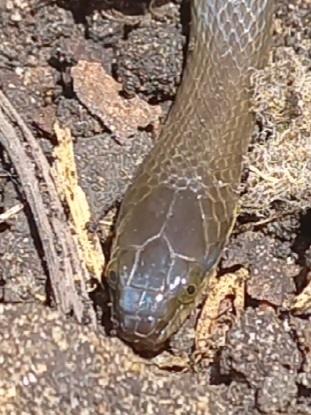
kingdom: Animalia
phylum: Chordata
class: Squamata
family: Lamprophiidae
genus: Lycodonomorphus
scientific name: Lycodonomorphus rufulus
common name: Brown water snake
